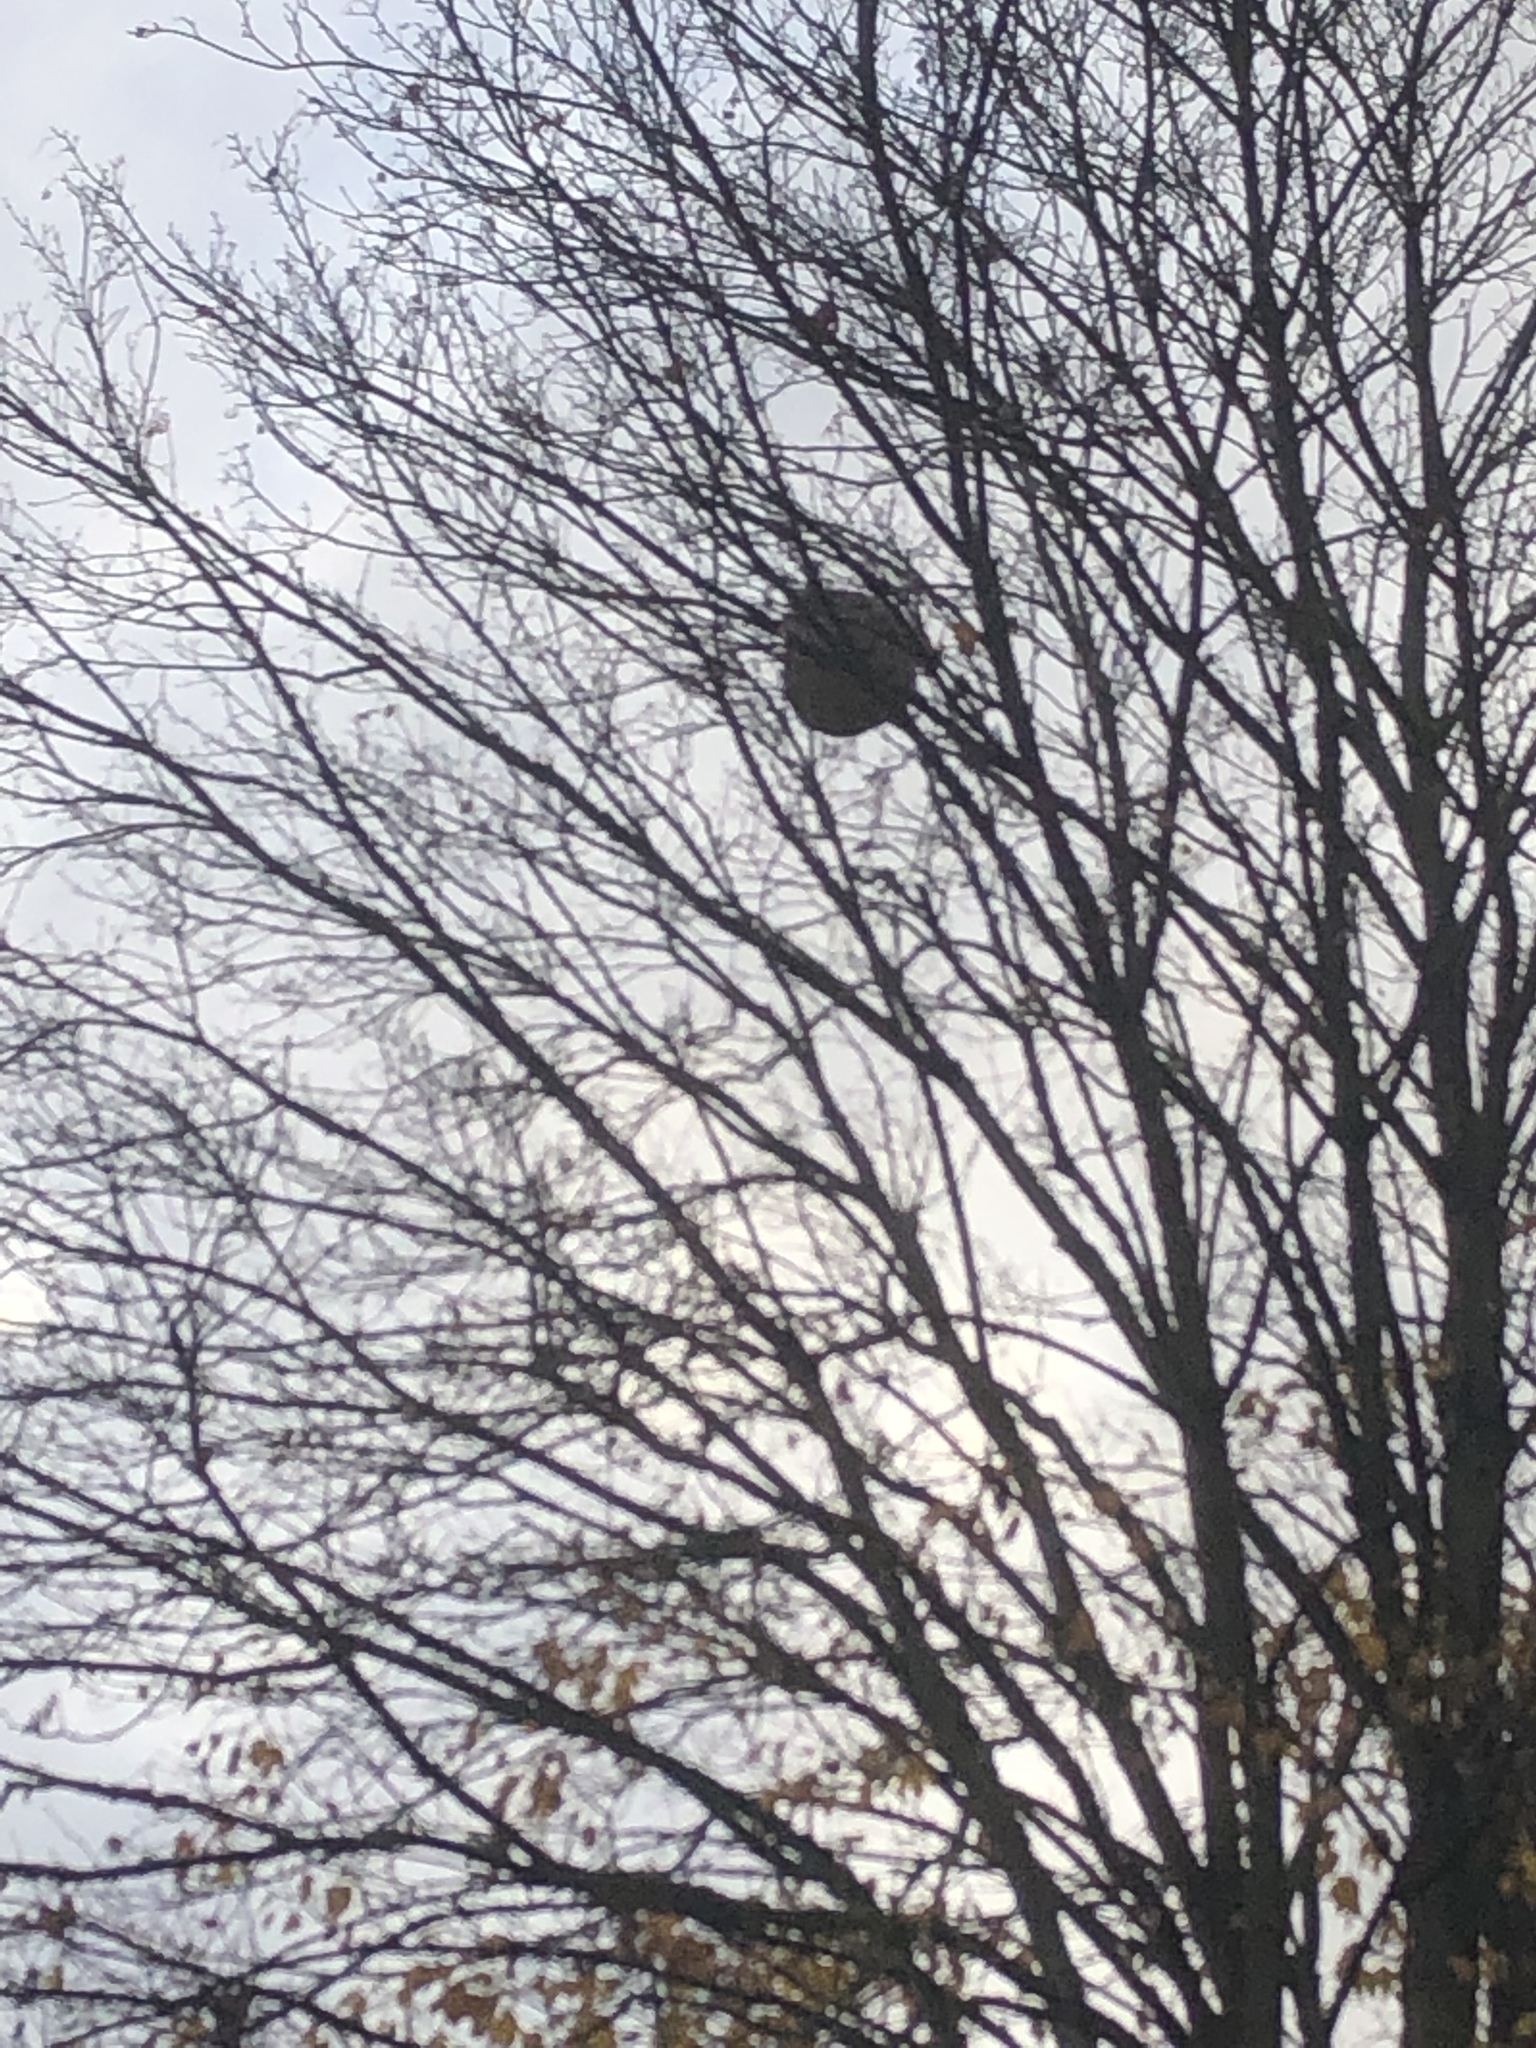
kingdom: Animalia
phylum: Arthropoda
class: Insecta
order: Hymenoptera
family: Vespidae
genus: Vespa
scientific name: Vespa velutina
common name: Asian hornet
